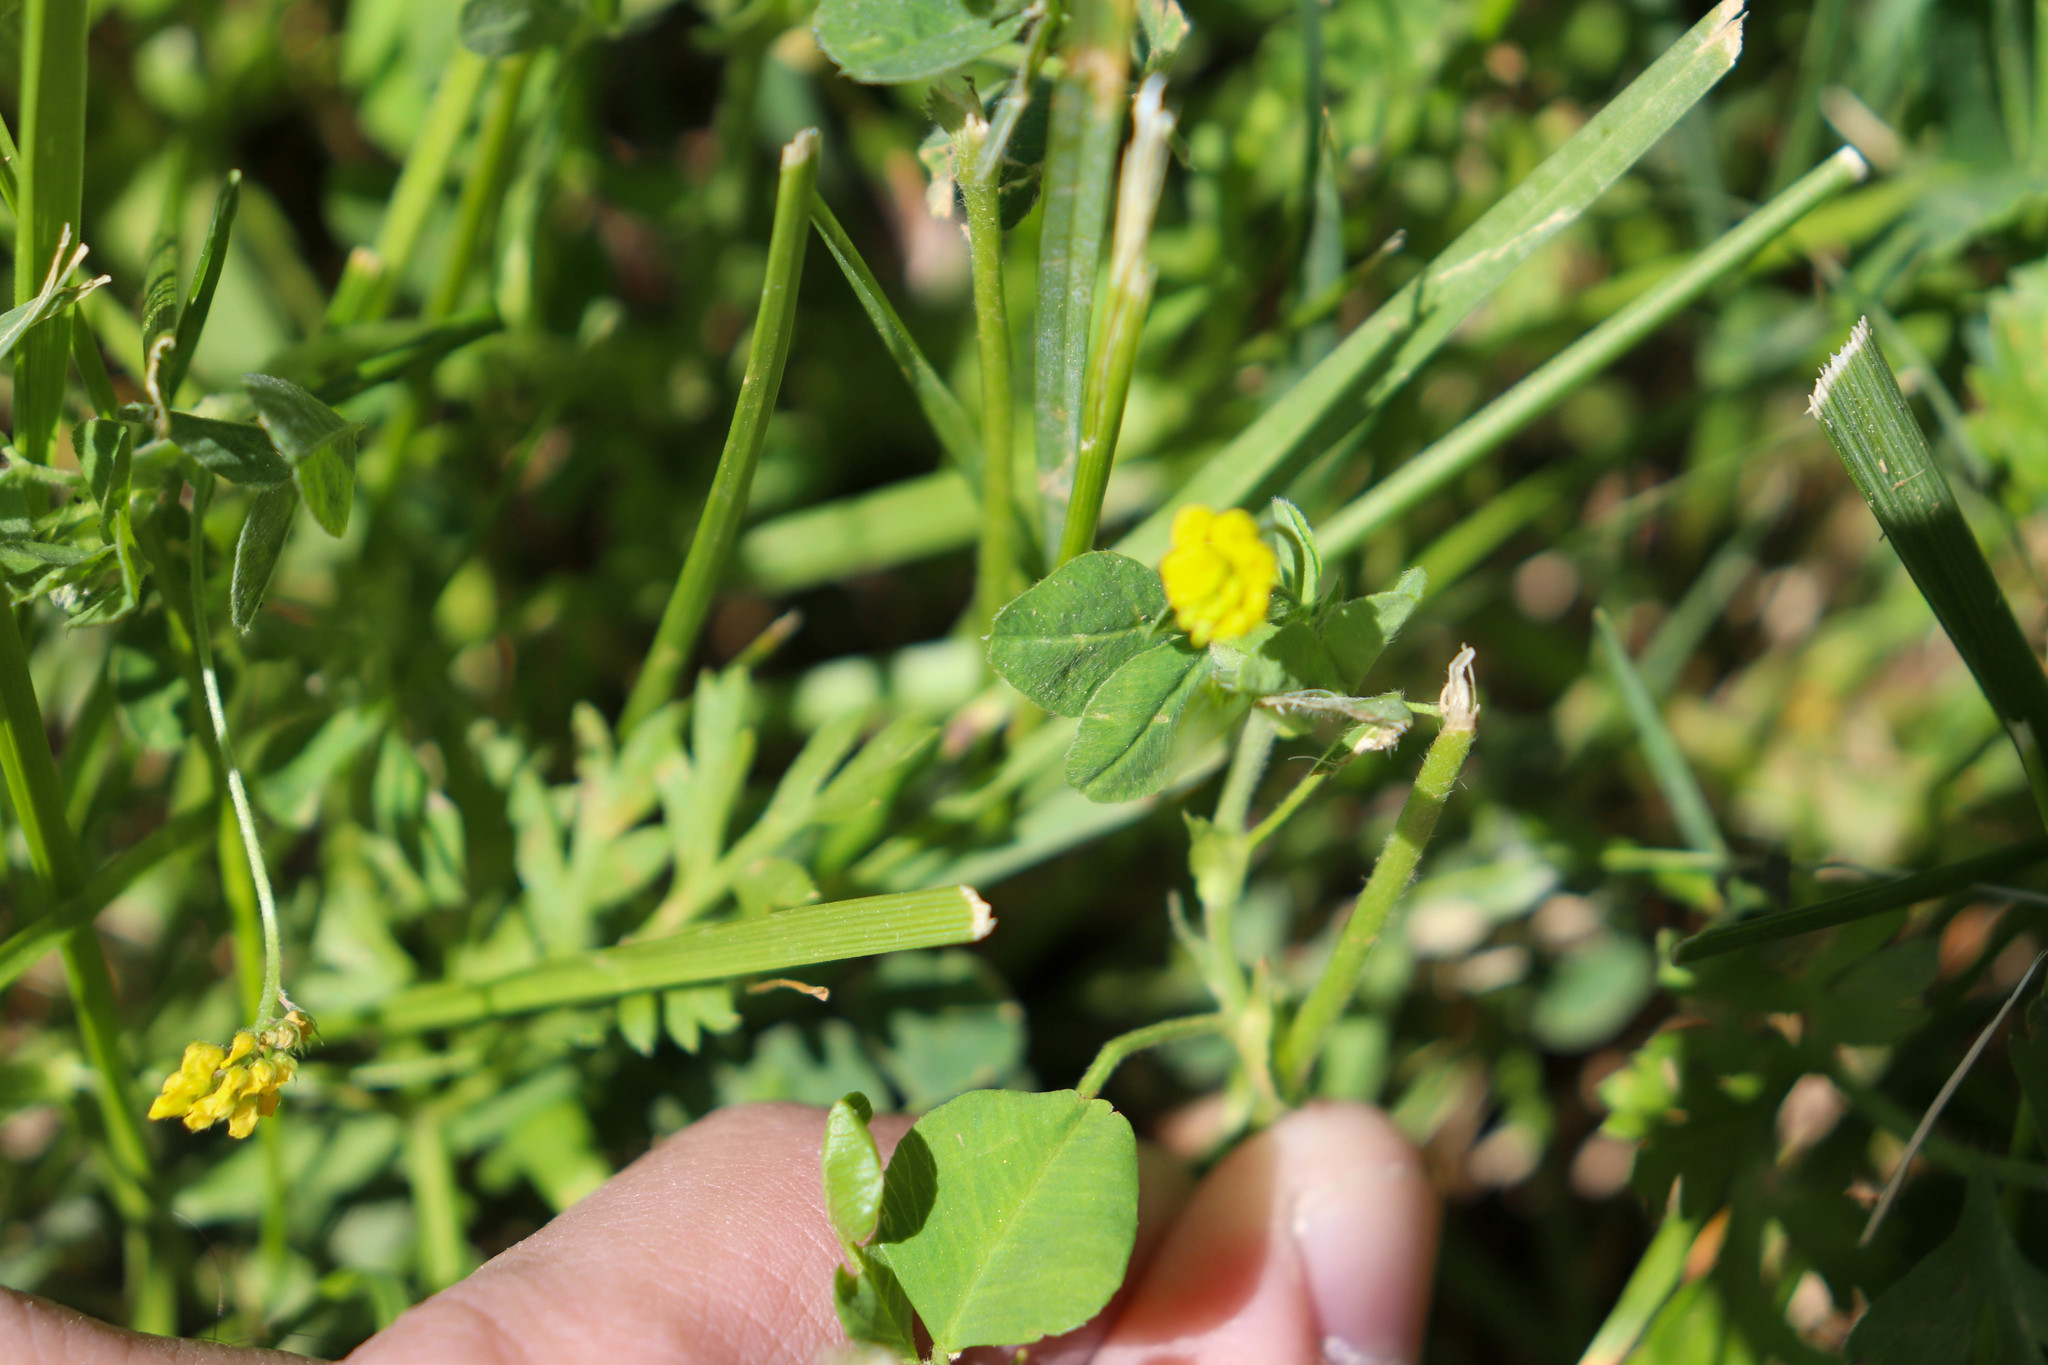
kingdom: Plantae
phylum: Tracheophyta
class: Magnoliopsida
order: Fabales
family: Fabaceae
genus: Medicago
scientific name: Medicago lupulina
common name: Black medick
